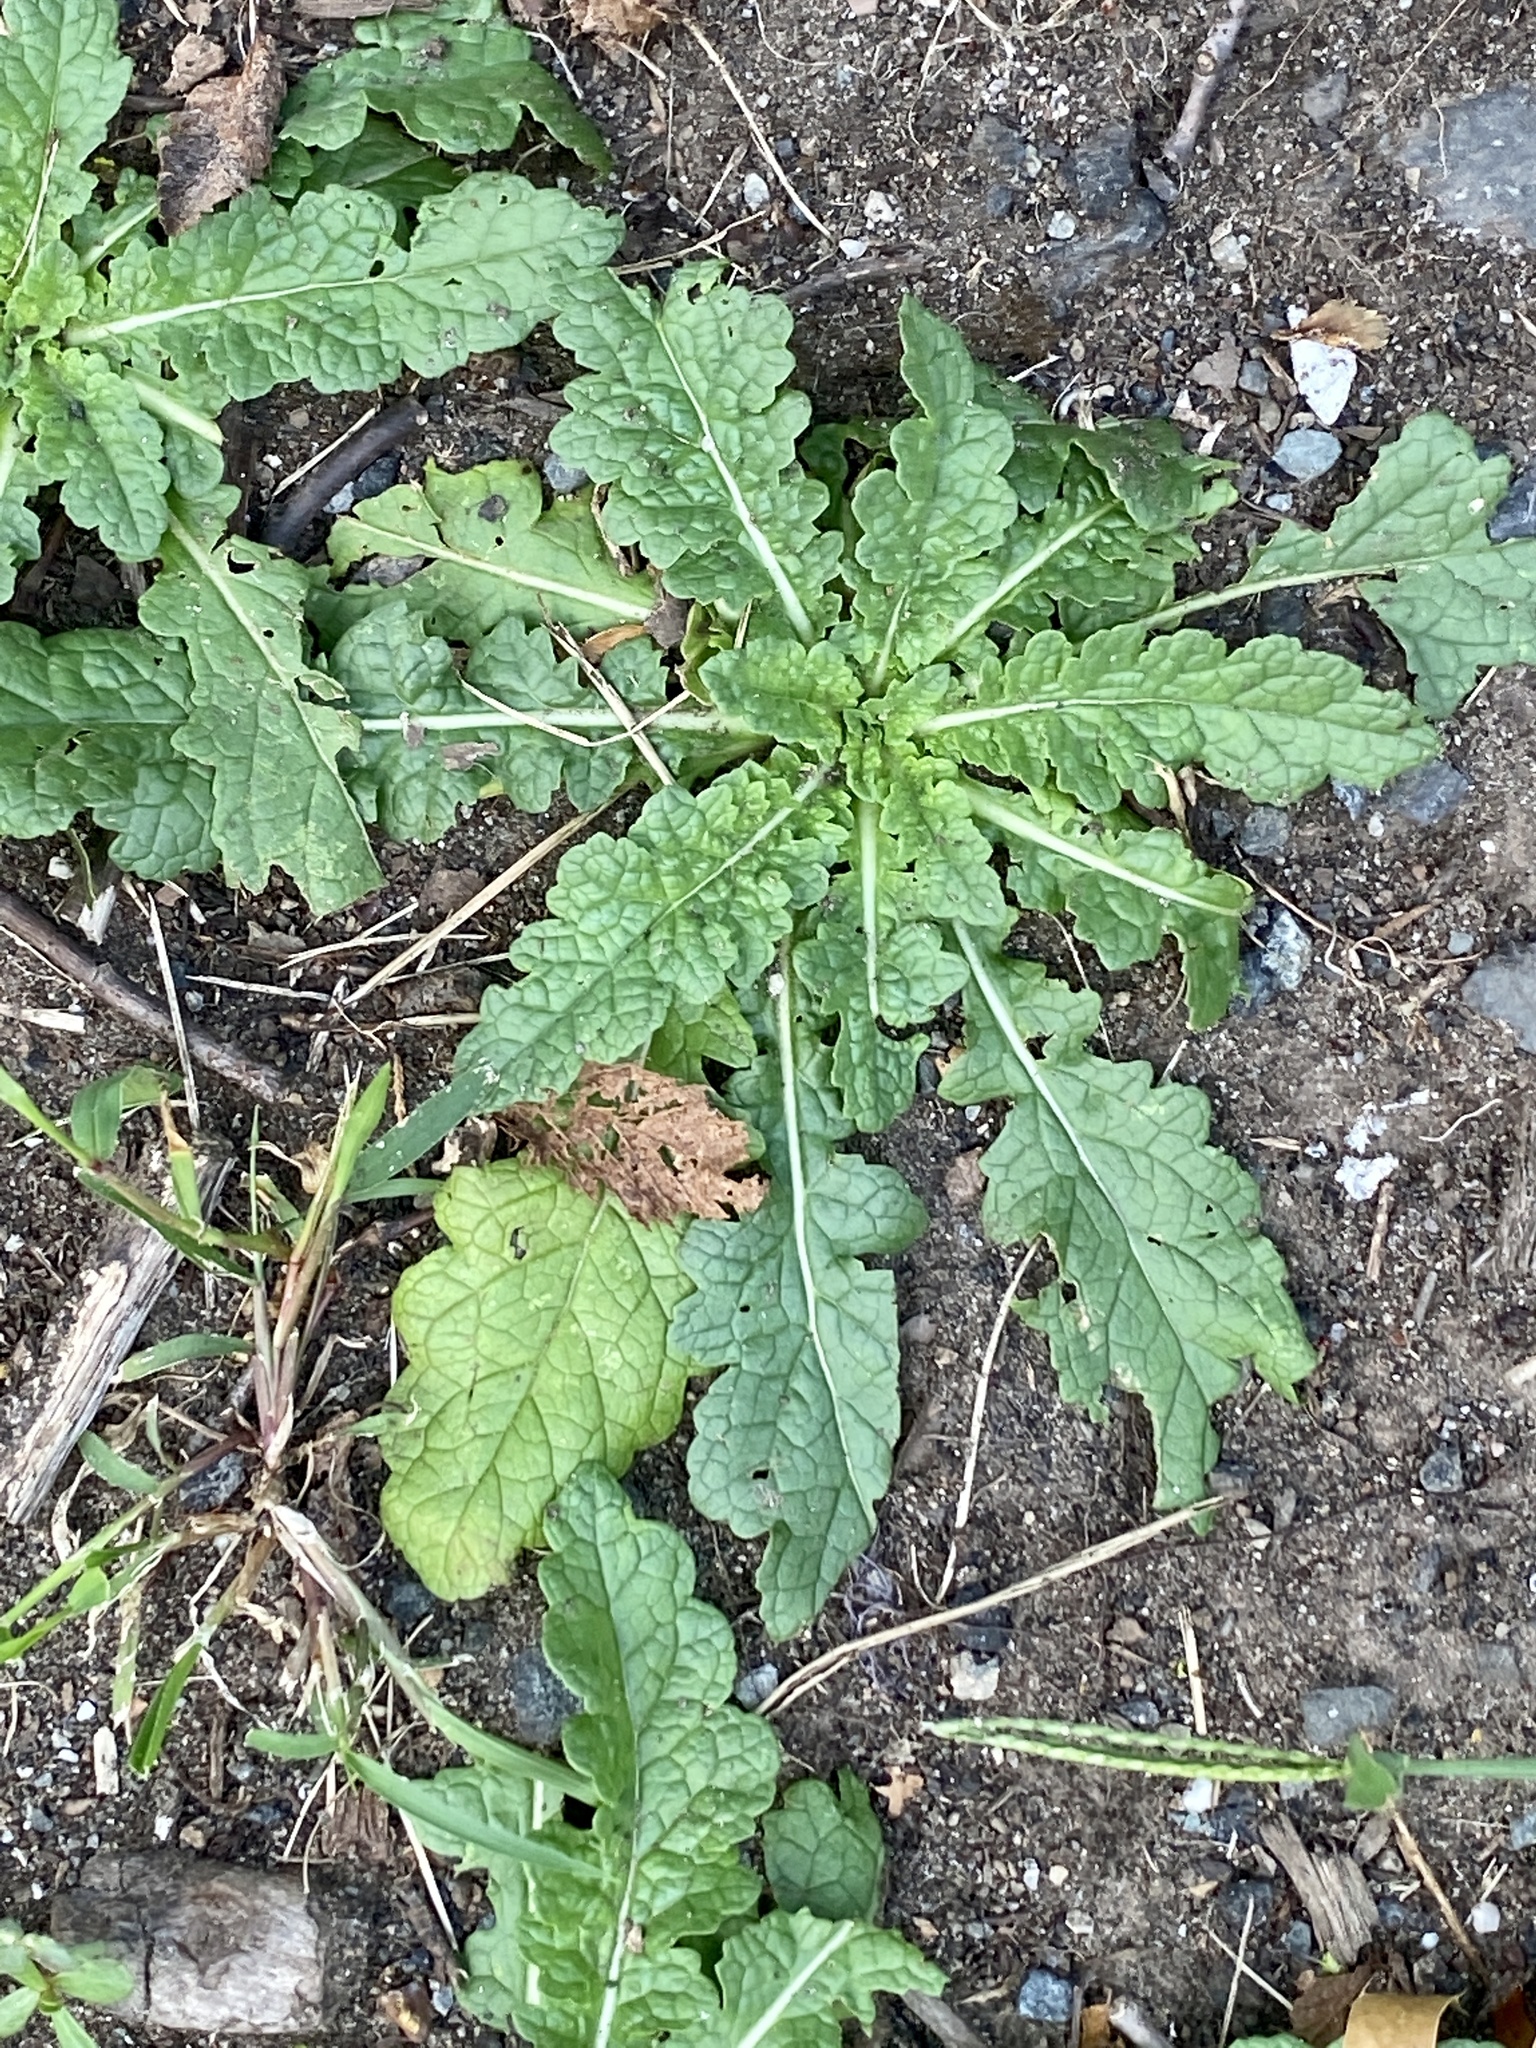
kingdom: Plantae
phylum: Tracheophyta
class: Magnoliopsida
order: Lamiales
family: Scrophulariaceae
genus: Verbascum
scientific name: Verbascum blattaria
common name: Moth mullein
